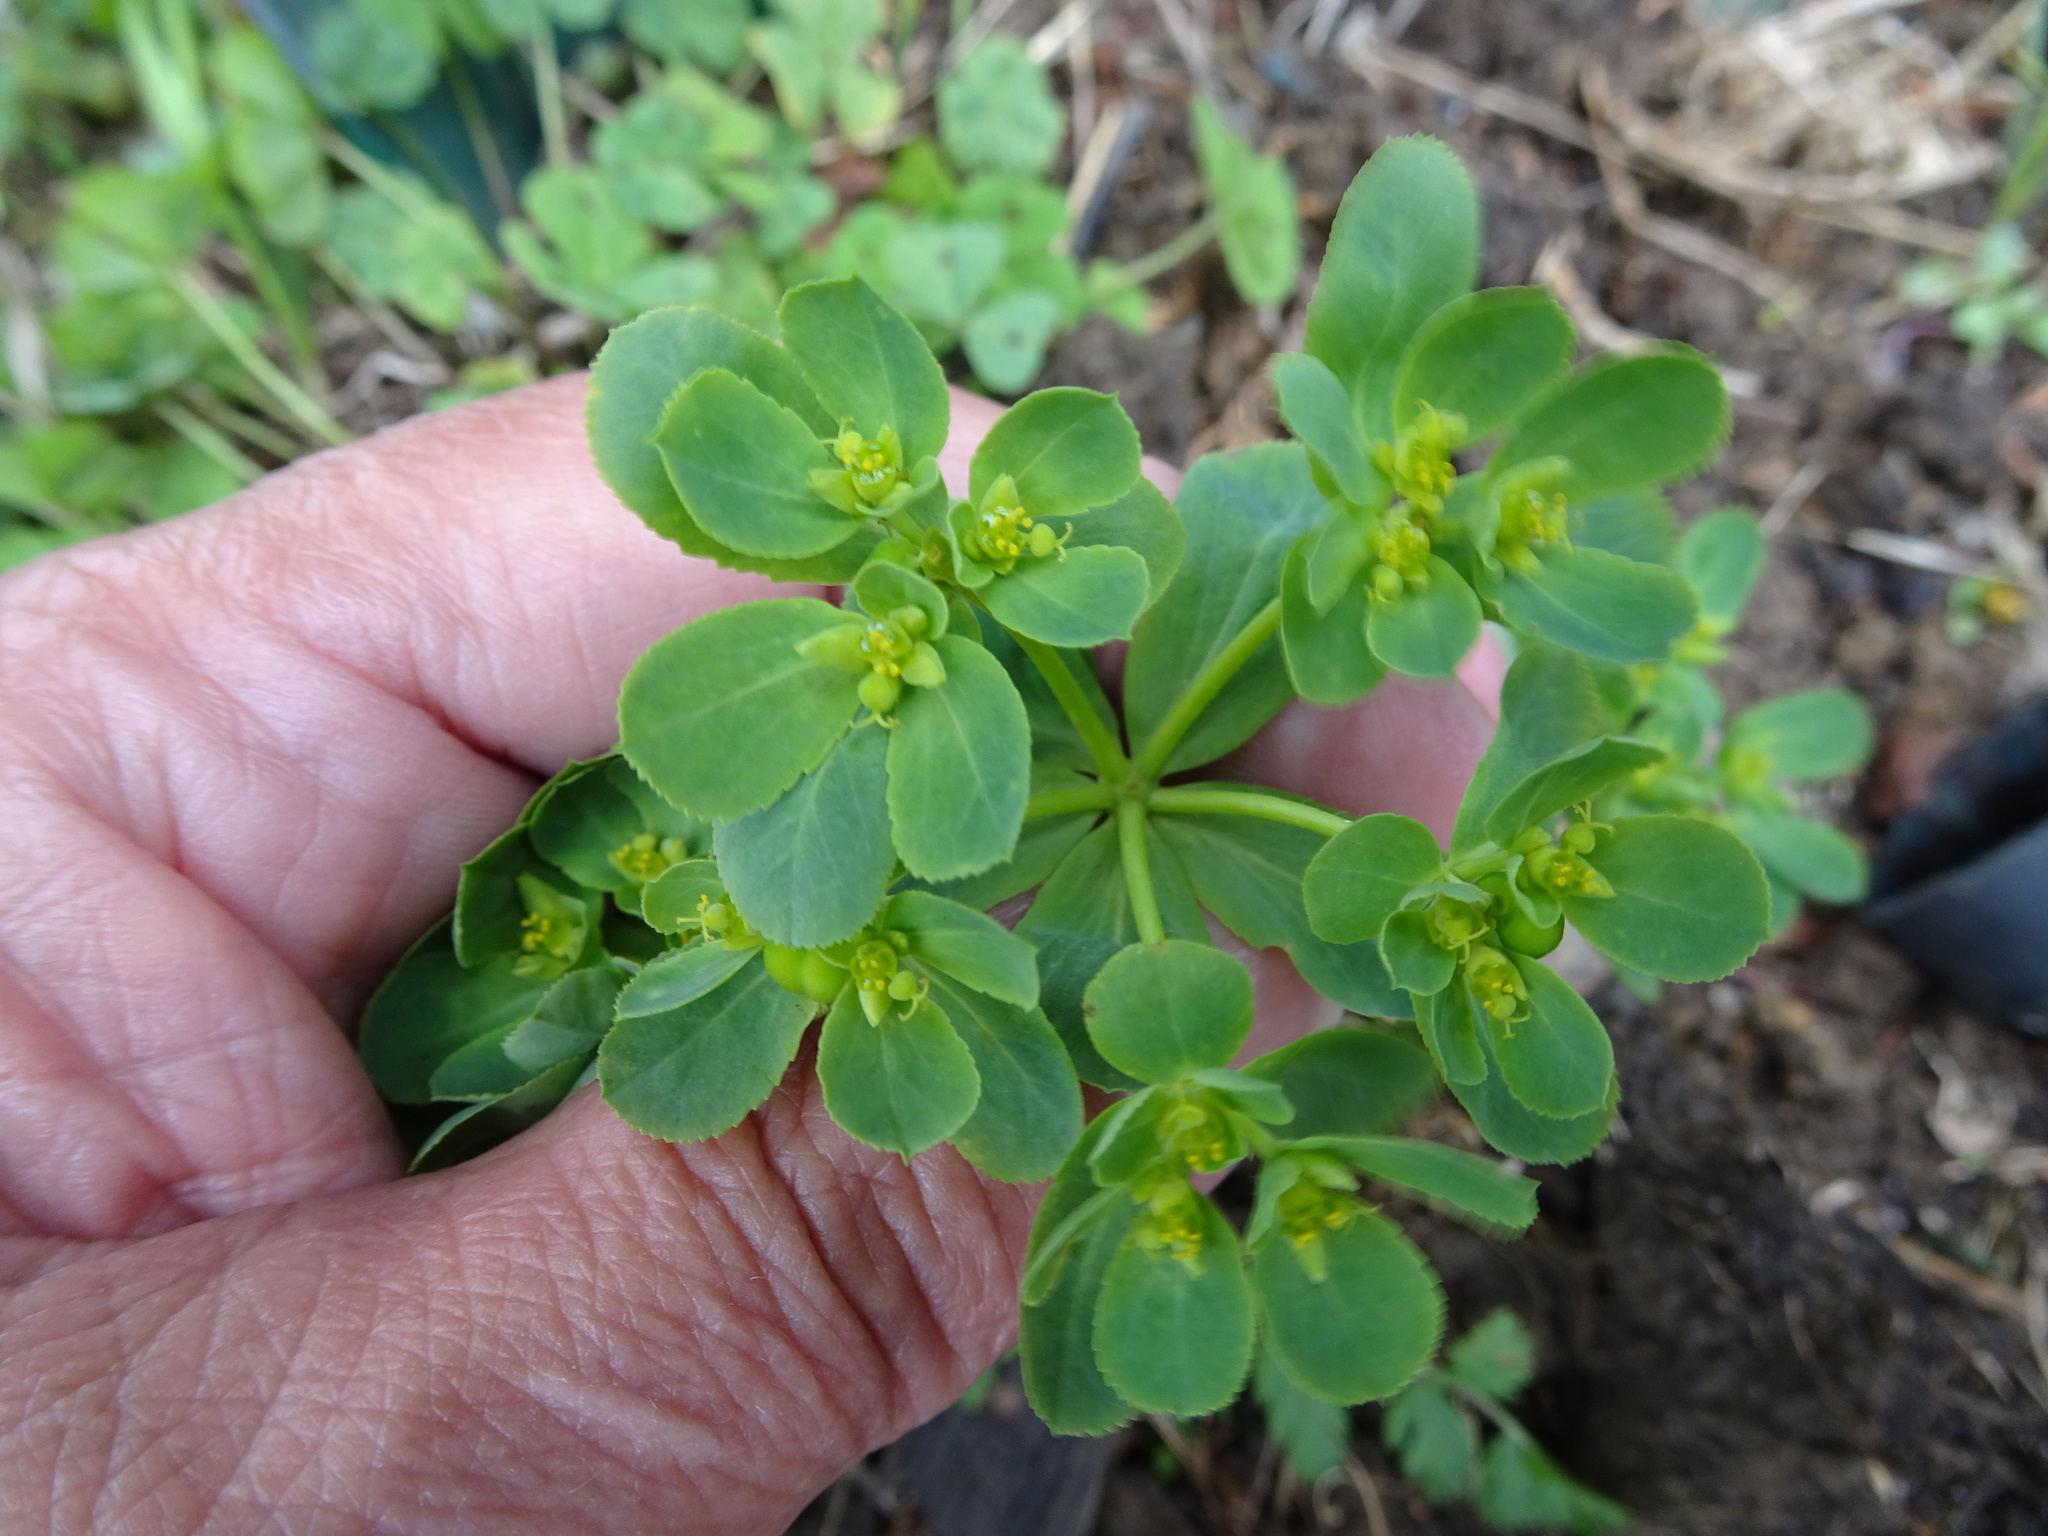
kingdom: Plantae
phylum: Tracheophyta
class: Magnoliopsida
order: Malpighiales
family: Euphorbiaceae
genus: Euphorbia
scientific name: Euphorbia helioscopia
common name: Sun spurge
